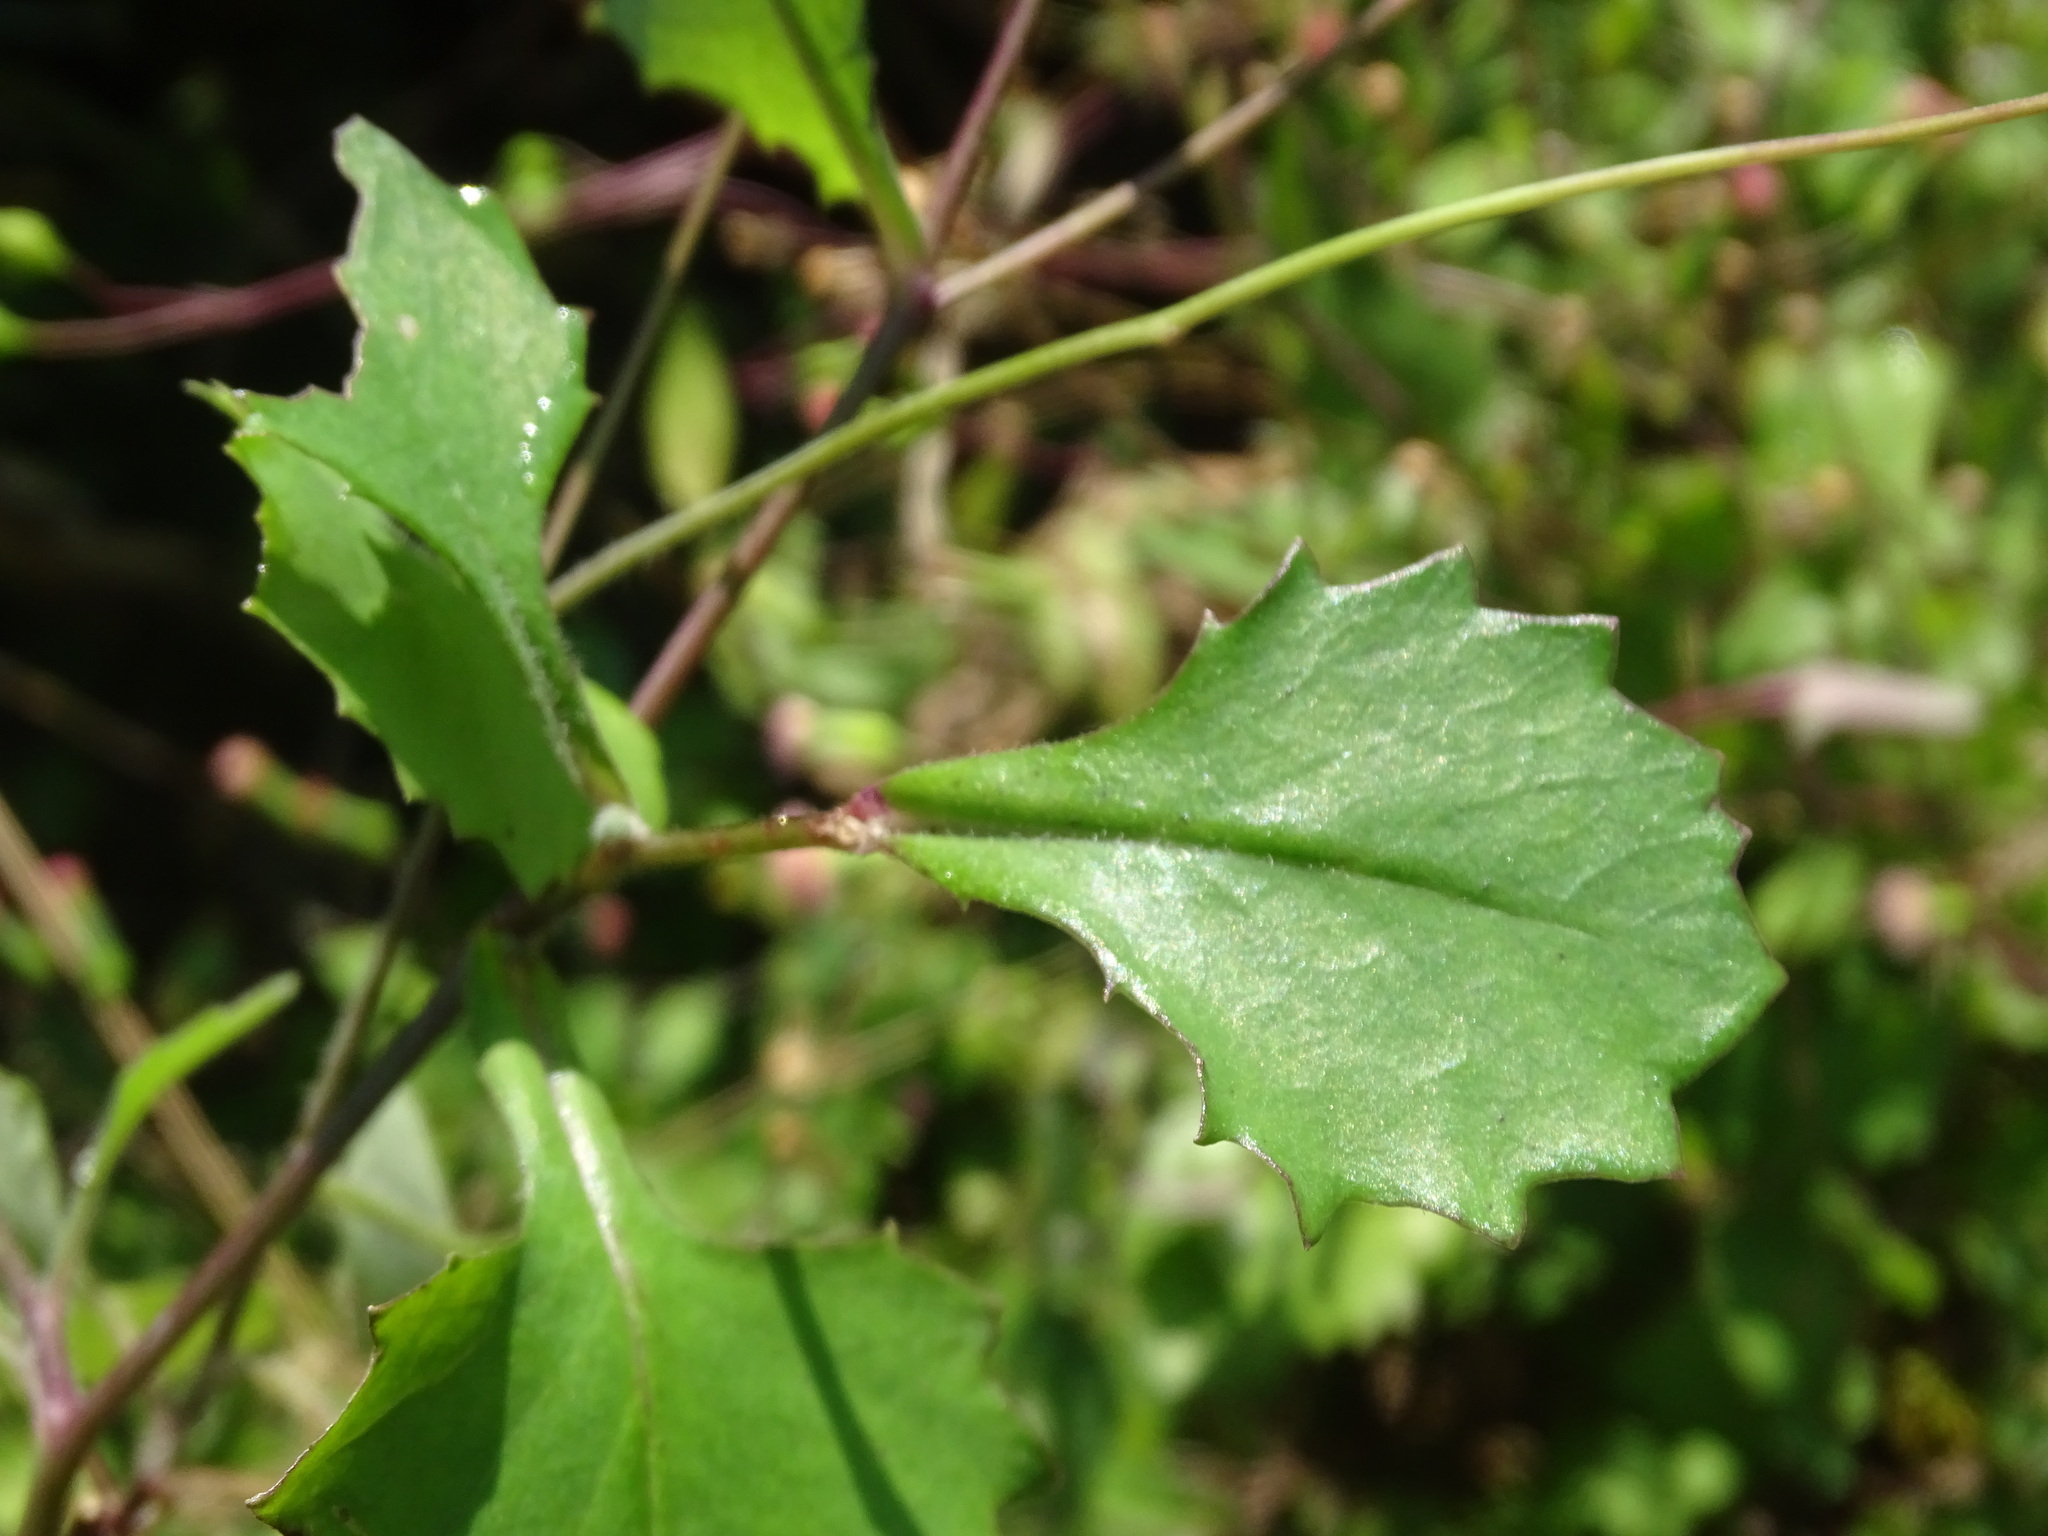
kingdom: Plantae
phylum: Tracheophyta
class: Magnoliopsida
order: Asterales
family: Asteraceae
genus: Emilia
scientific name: Emilia fosbergii
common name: Florida tasselflower
